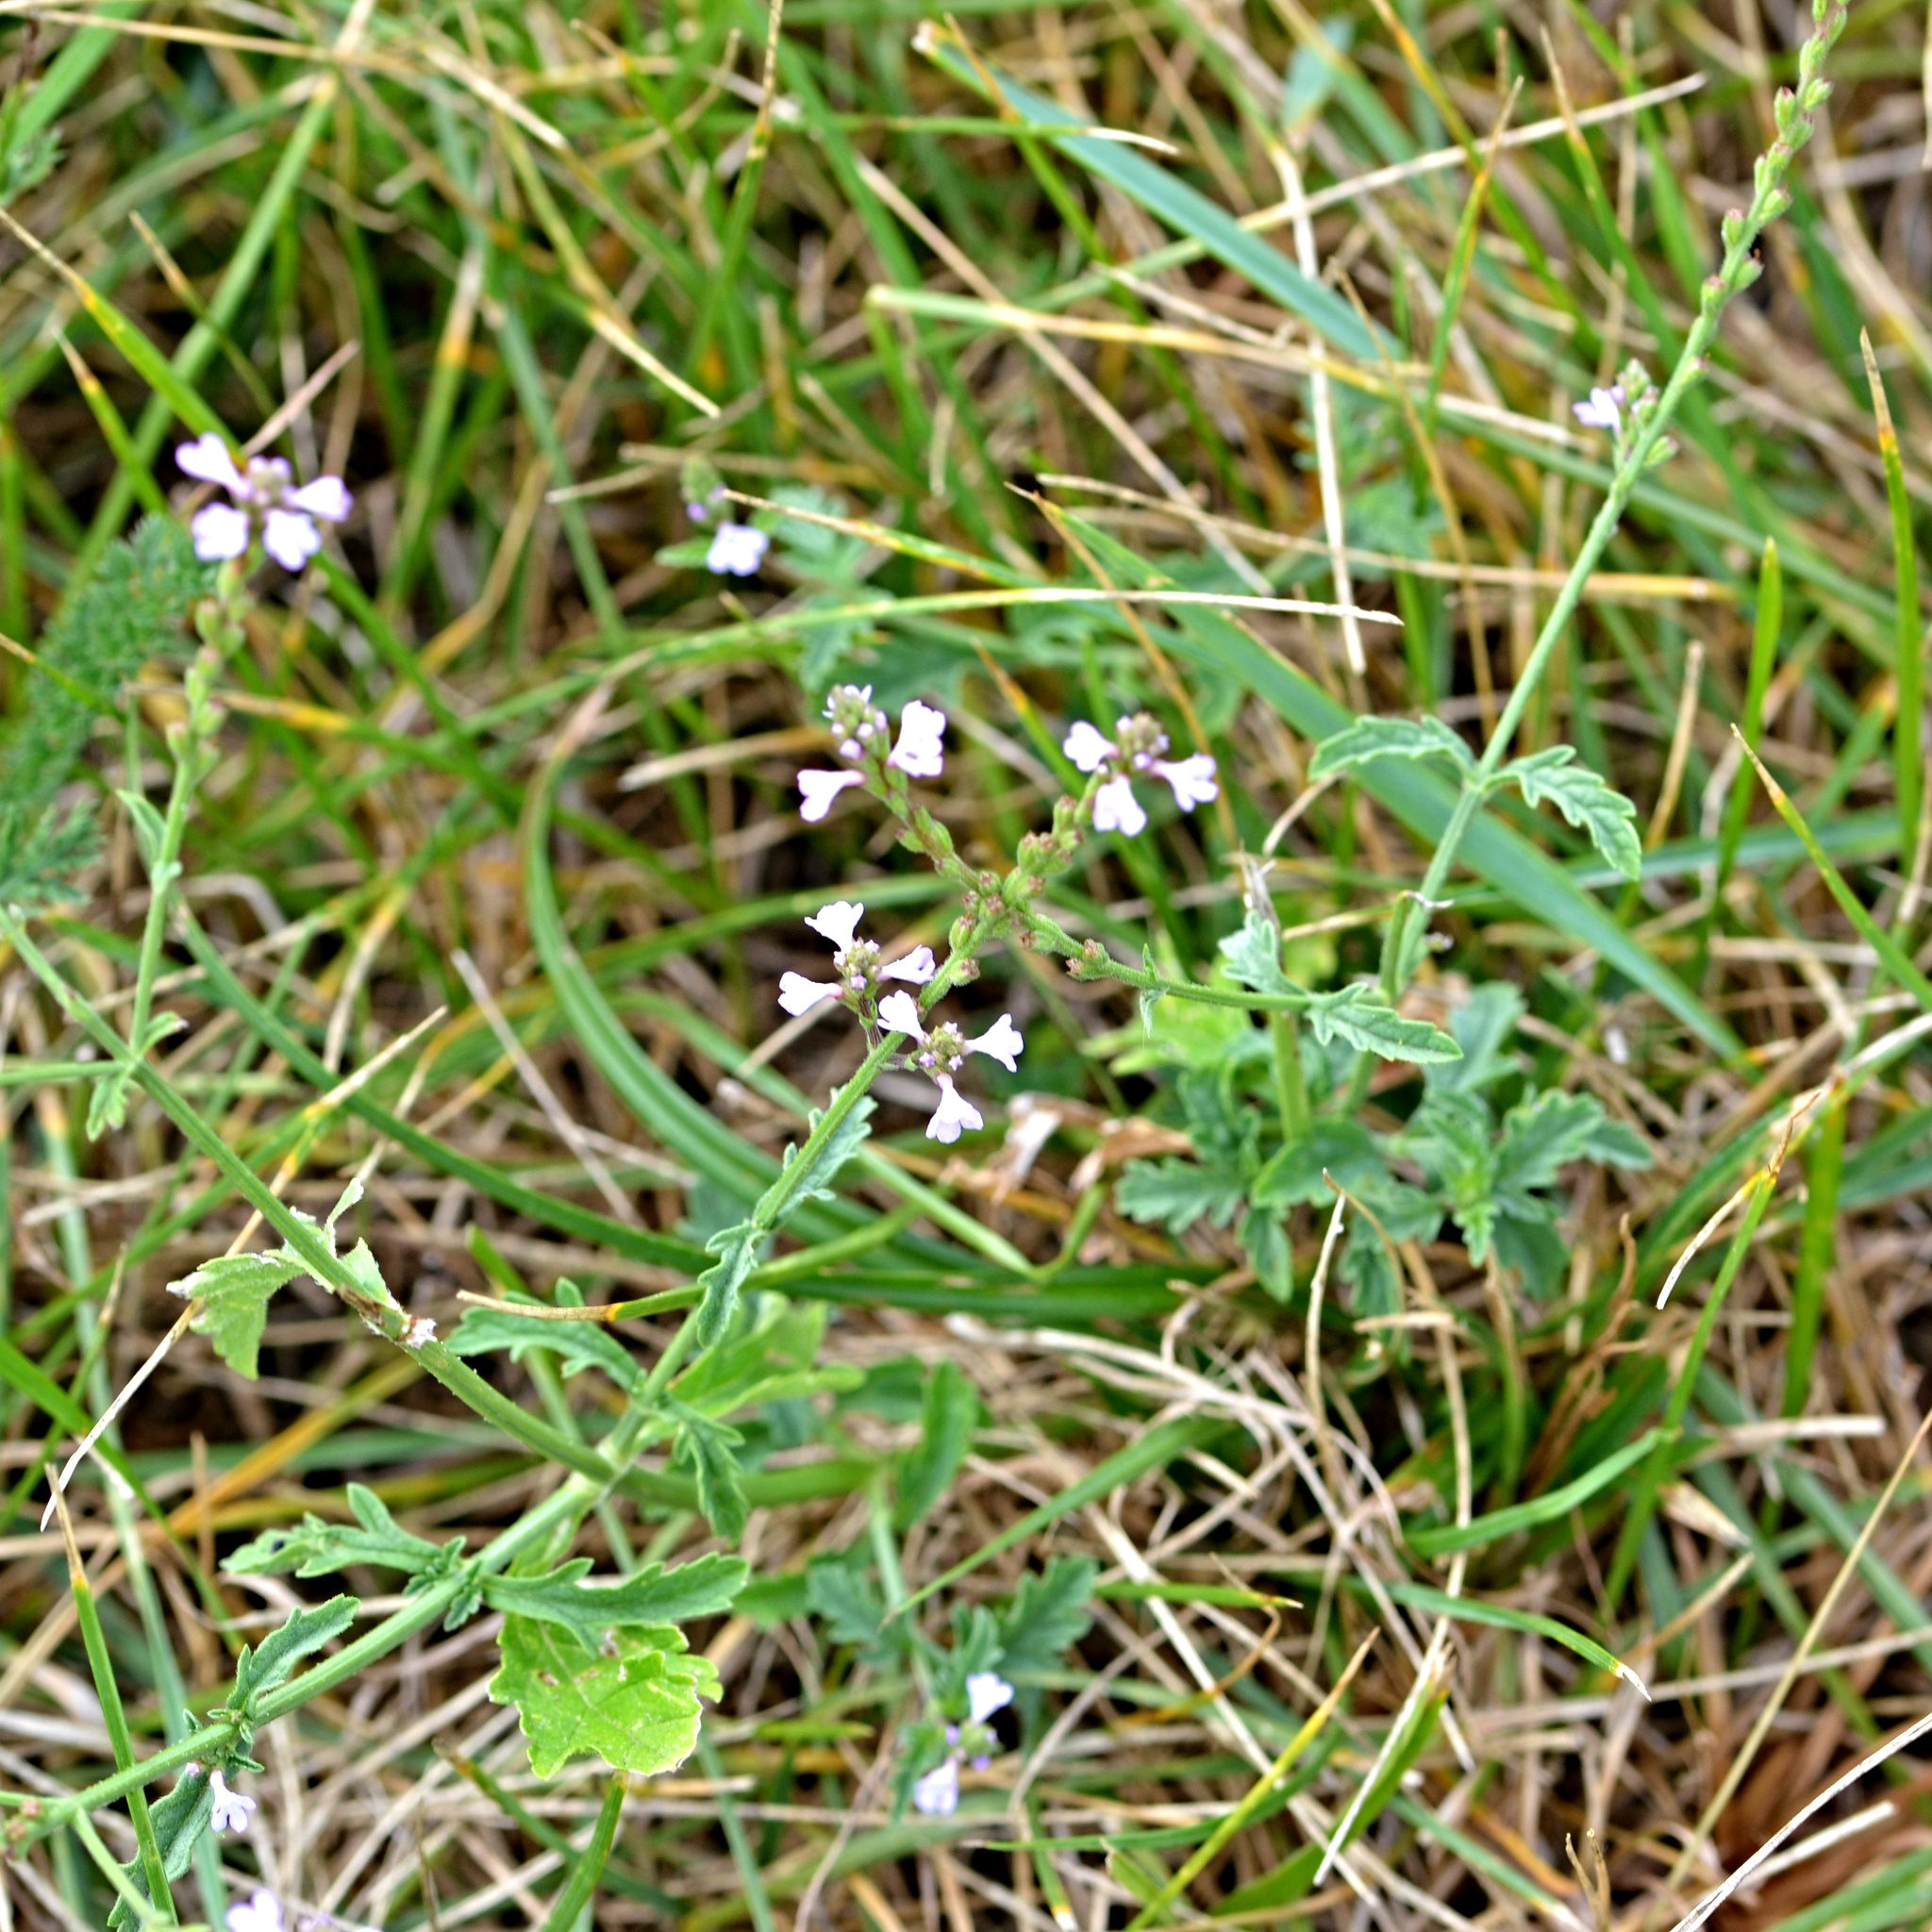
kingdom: Plantae
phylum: Tracheophyta
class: Magnoliopsida
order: Lamiales
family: Verbenaceae
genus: Verbena
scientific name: Verbena officinalis
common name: Vervain
